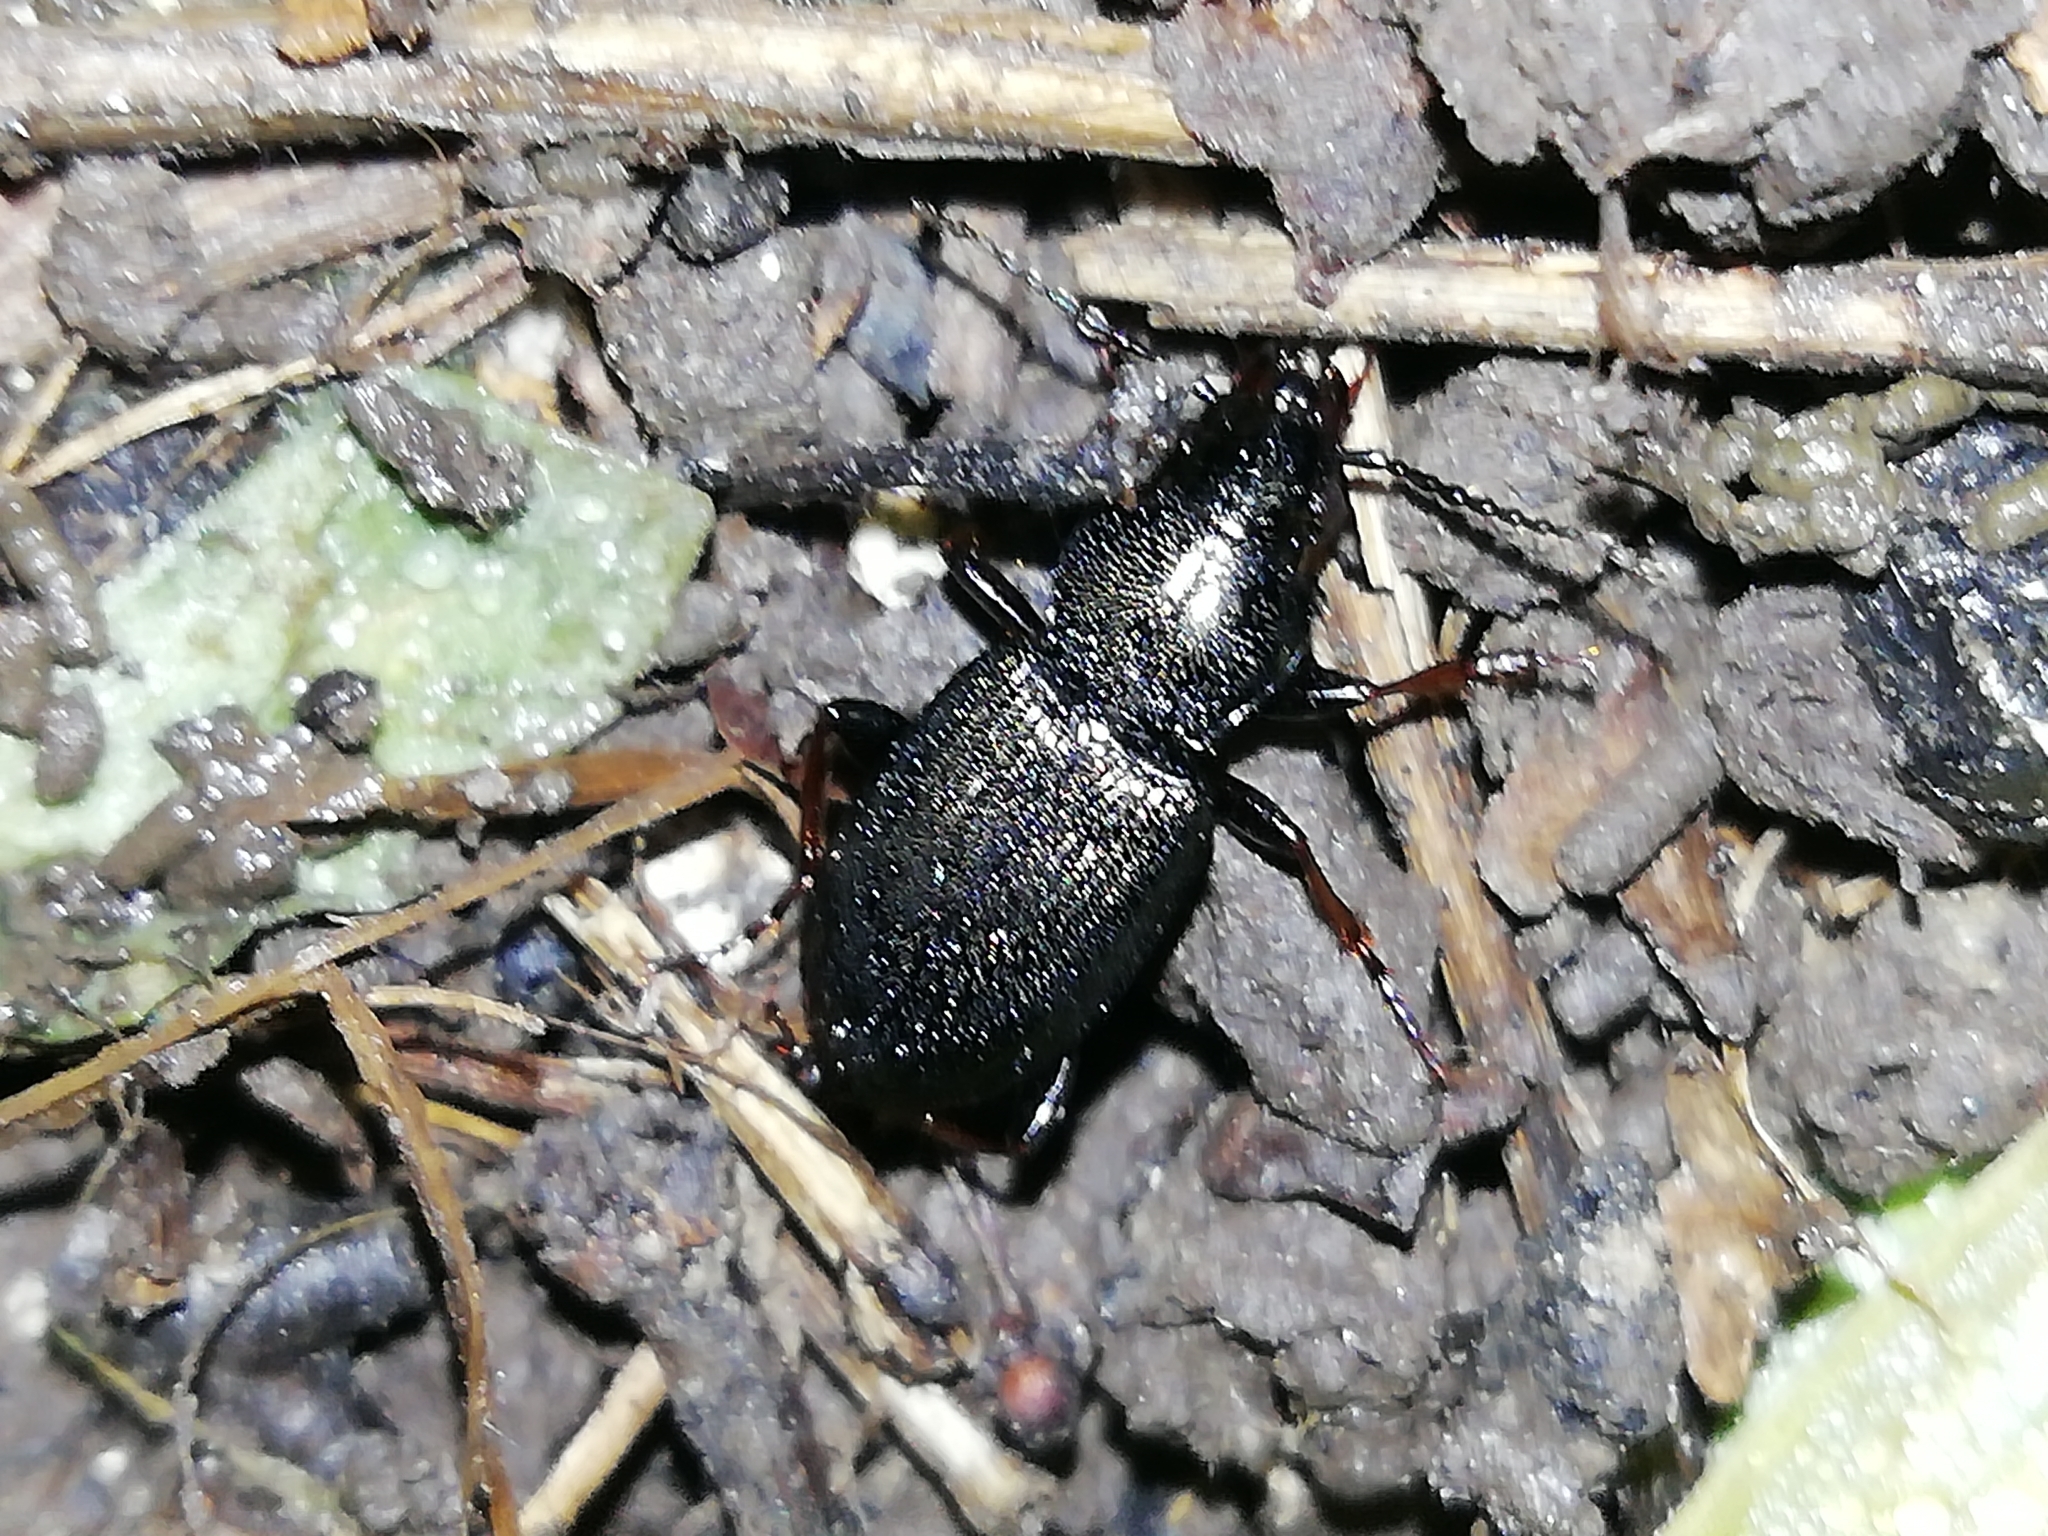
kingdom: Animalia
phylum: Arthropoda
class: Insecta
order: Coleoptera
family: Carabidae
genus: Pterostichus
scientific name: Pterostichus oblongopunctatus
